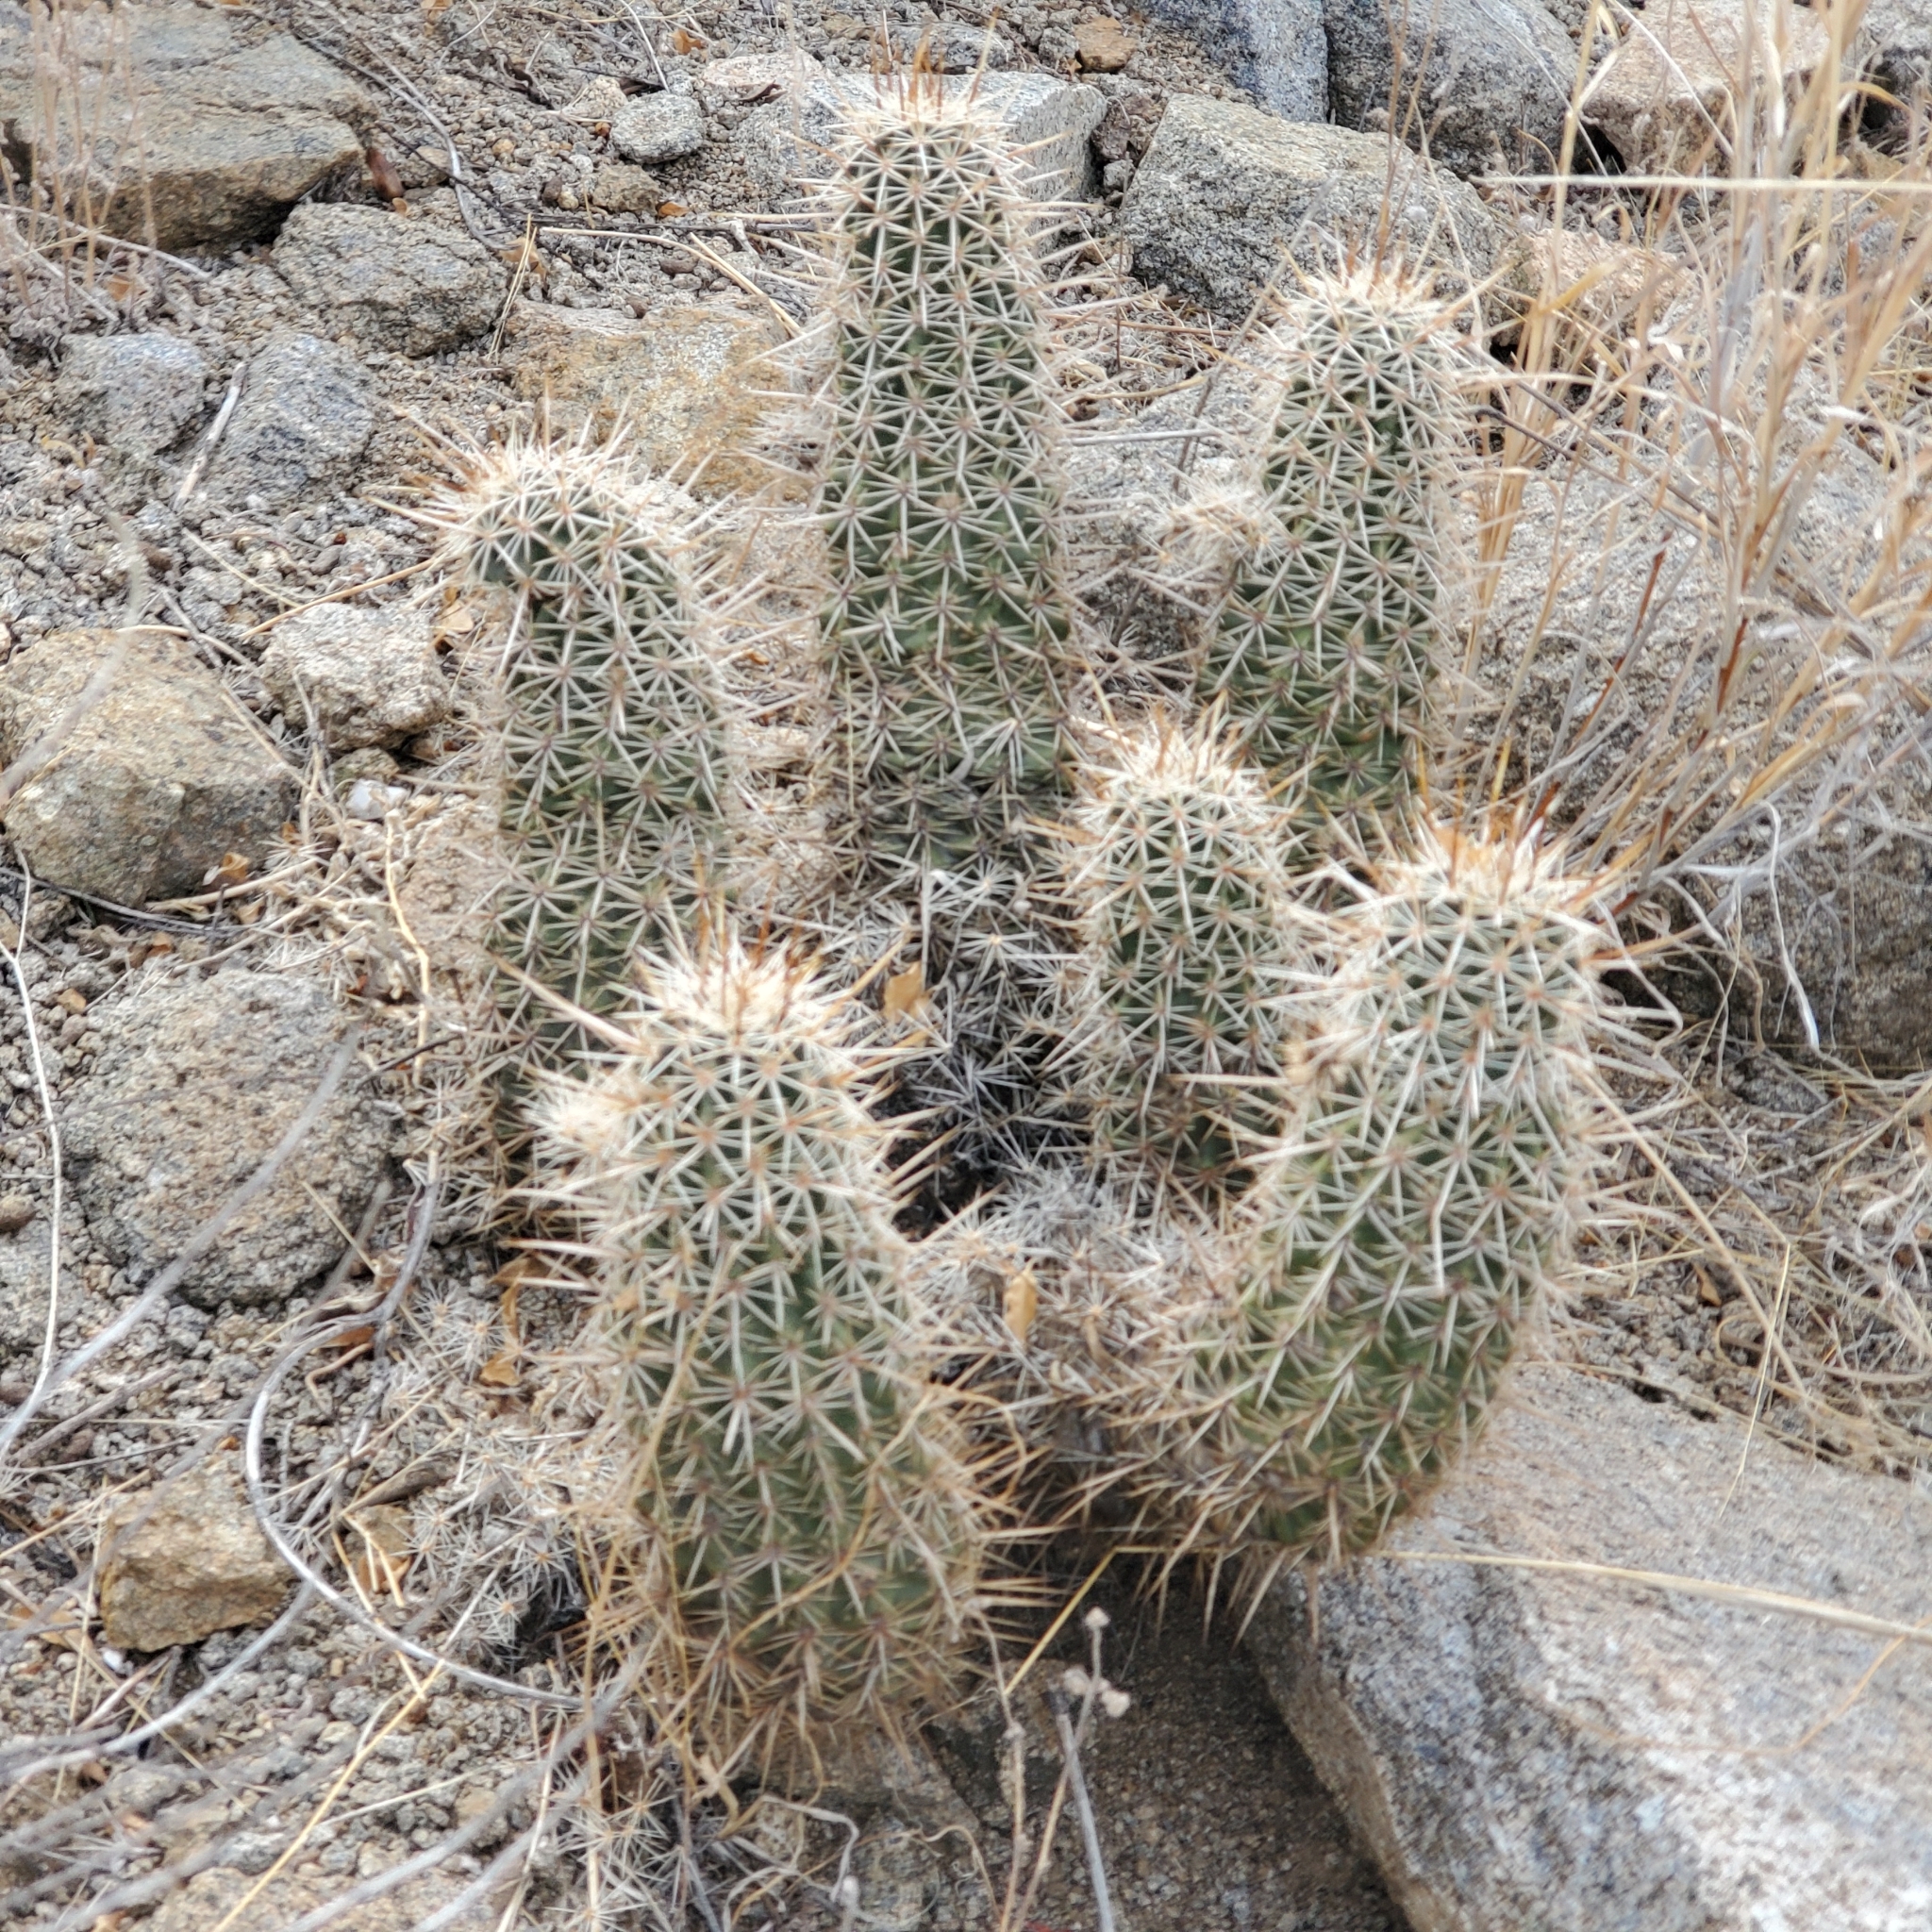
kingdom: Plantae
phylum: Tracheophyta
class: Magnoliopsida
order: Caryophyllales
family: Cactaceae
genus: Echinocereus
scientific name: Echinocereus engelmannii
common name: Engelmann's hedgehog cactus
